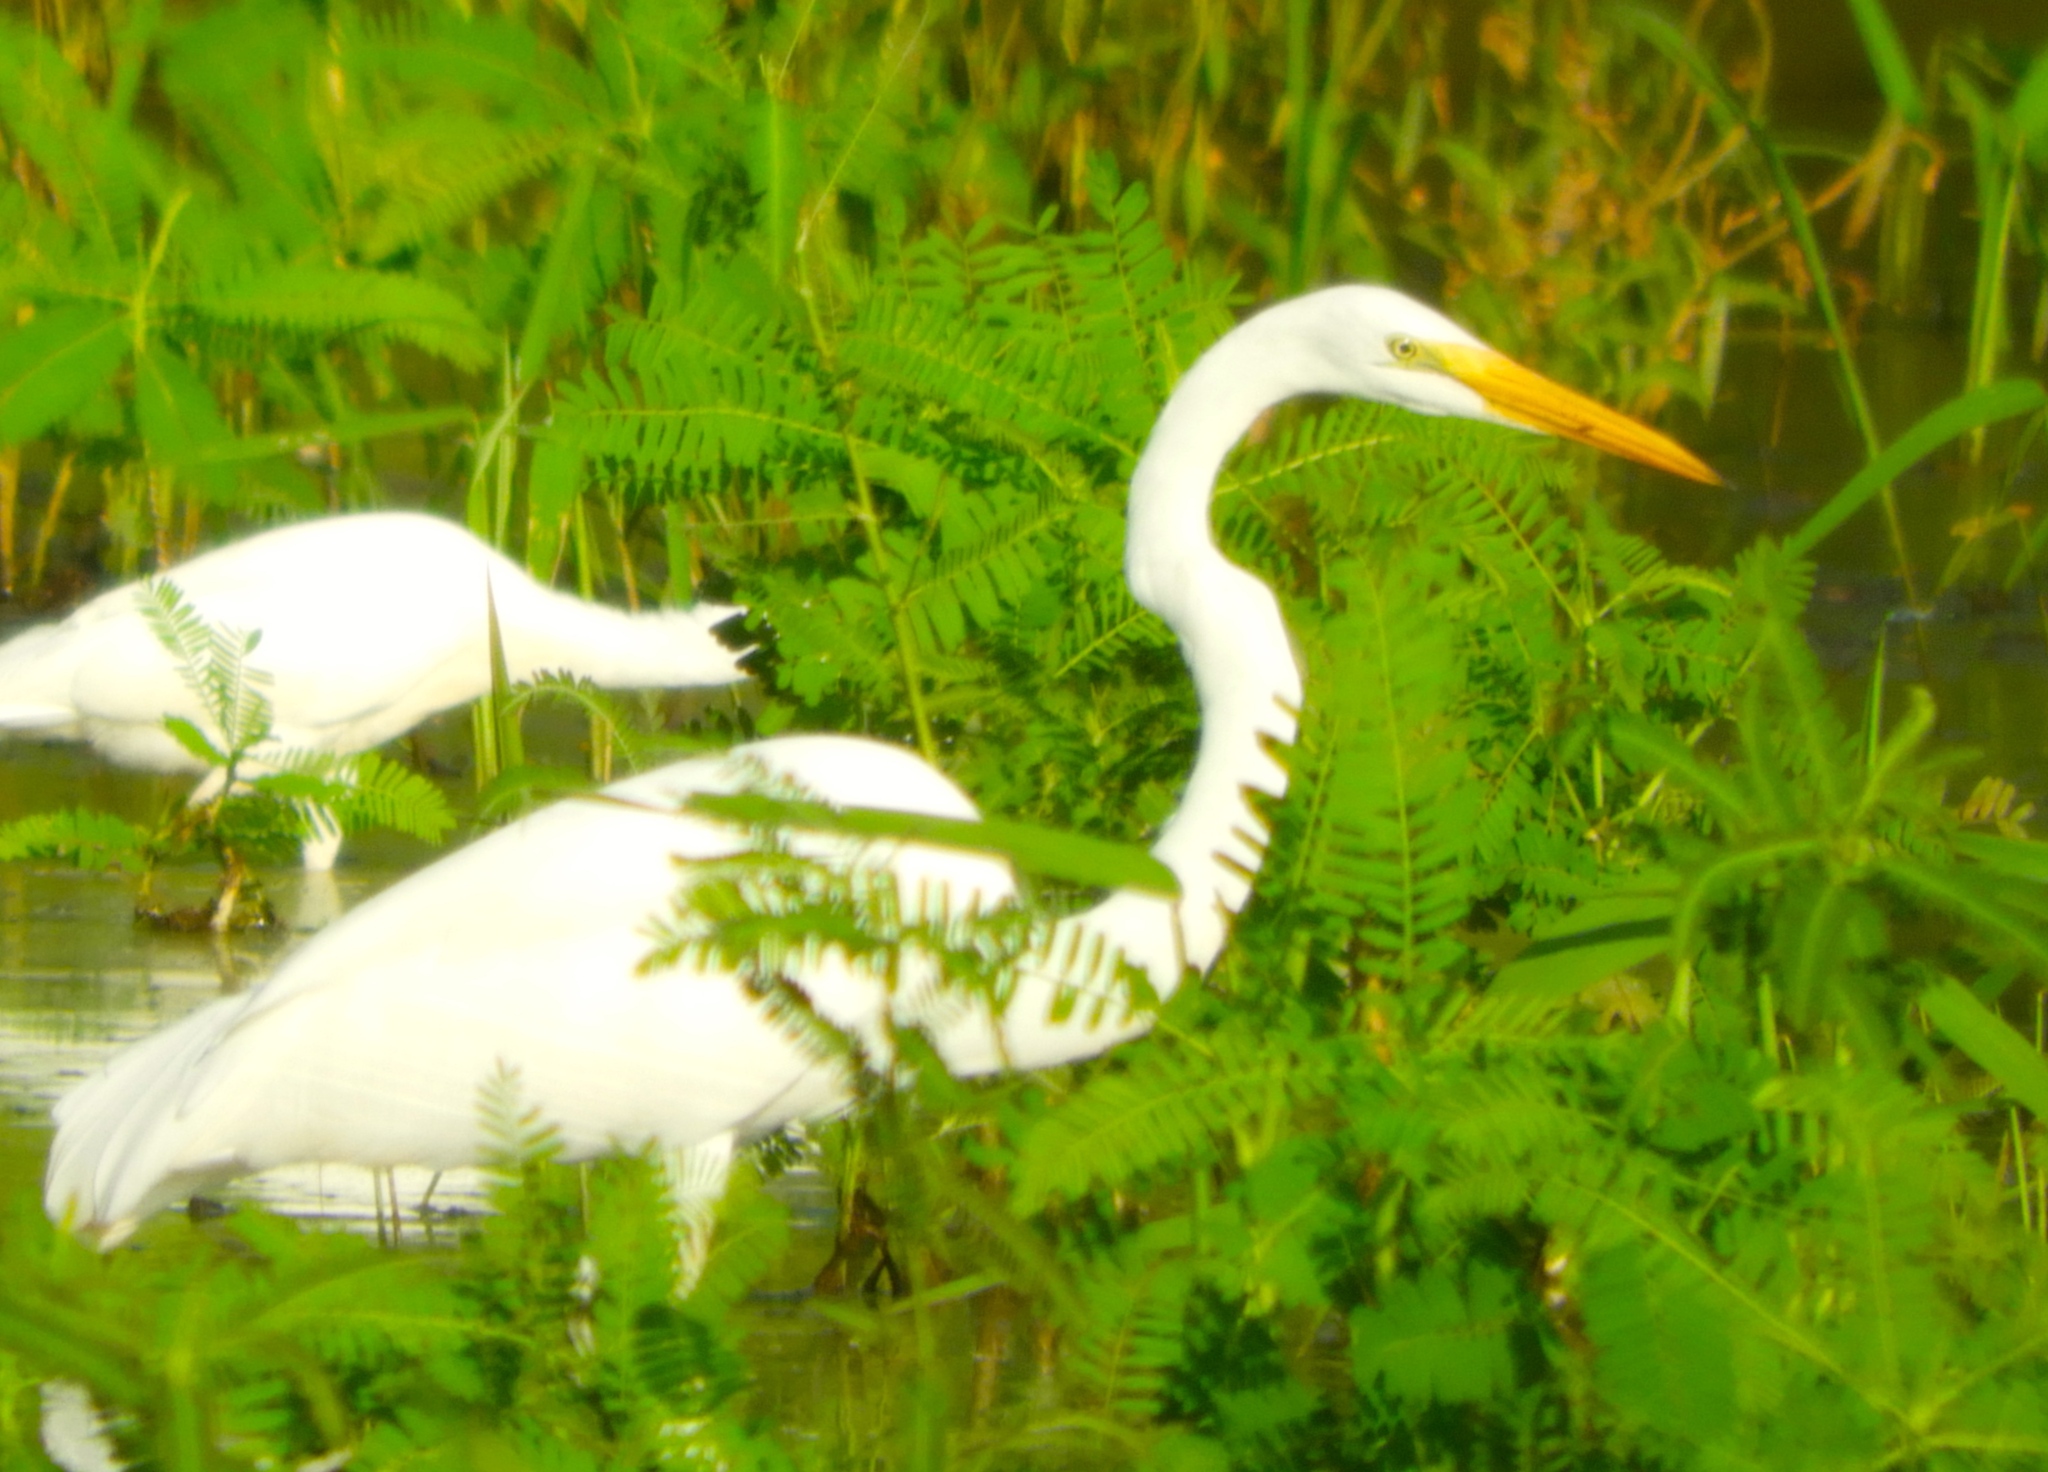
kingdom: Animalia
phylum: Chordata
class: Aves
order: Pelecaniformes
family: Ardeidae
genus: Ardea
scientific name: Ardea alba
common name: Great egret
